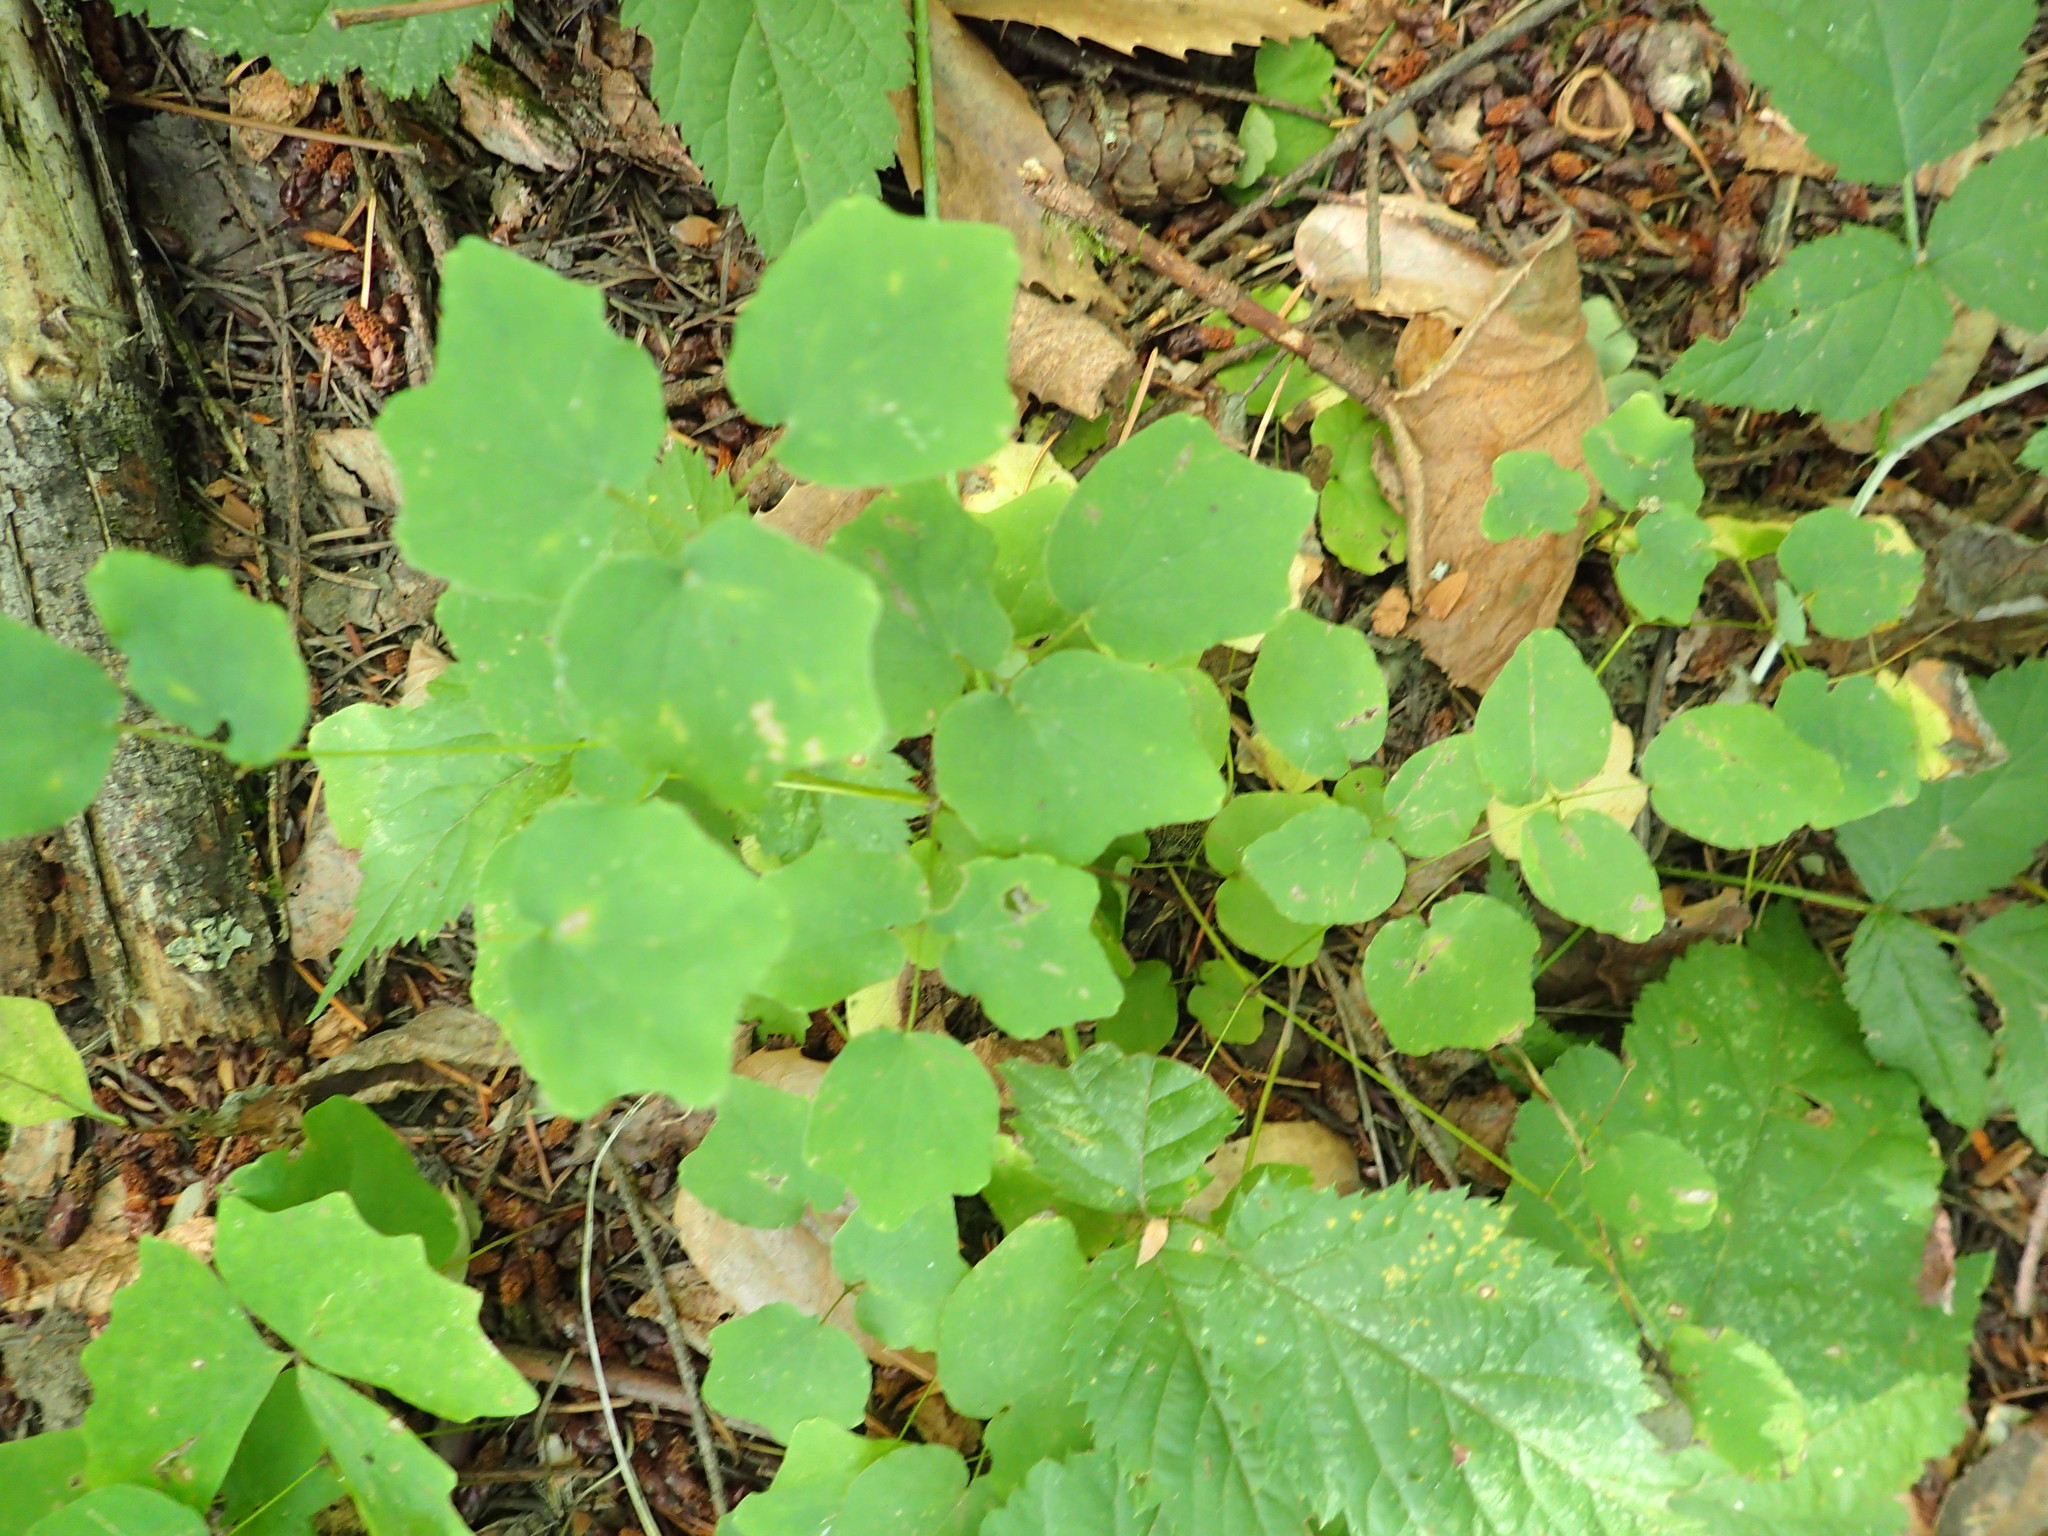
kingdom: Plantae
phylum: Tracheophyta
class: Magnoliopsida
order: Ranunculales
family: Berberidaceae
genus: Vancouveria
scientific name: Vancouveria hexandra
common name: Northern inside-out-flower
